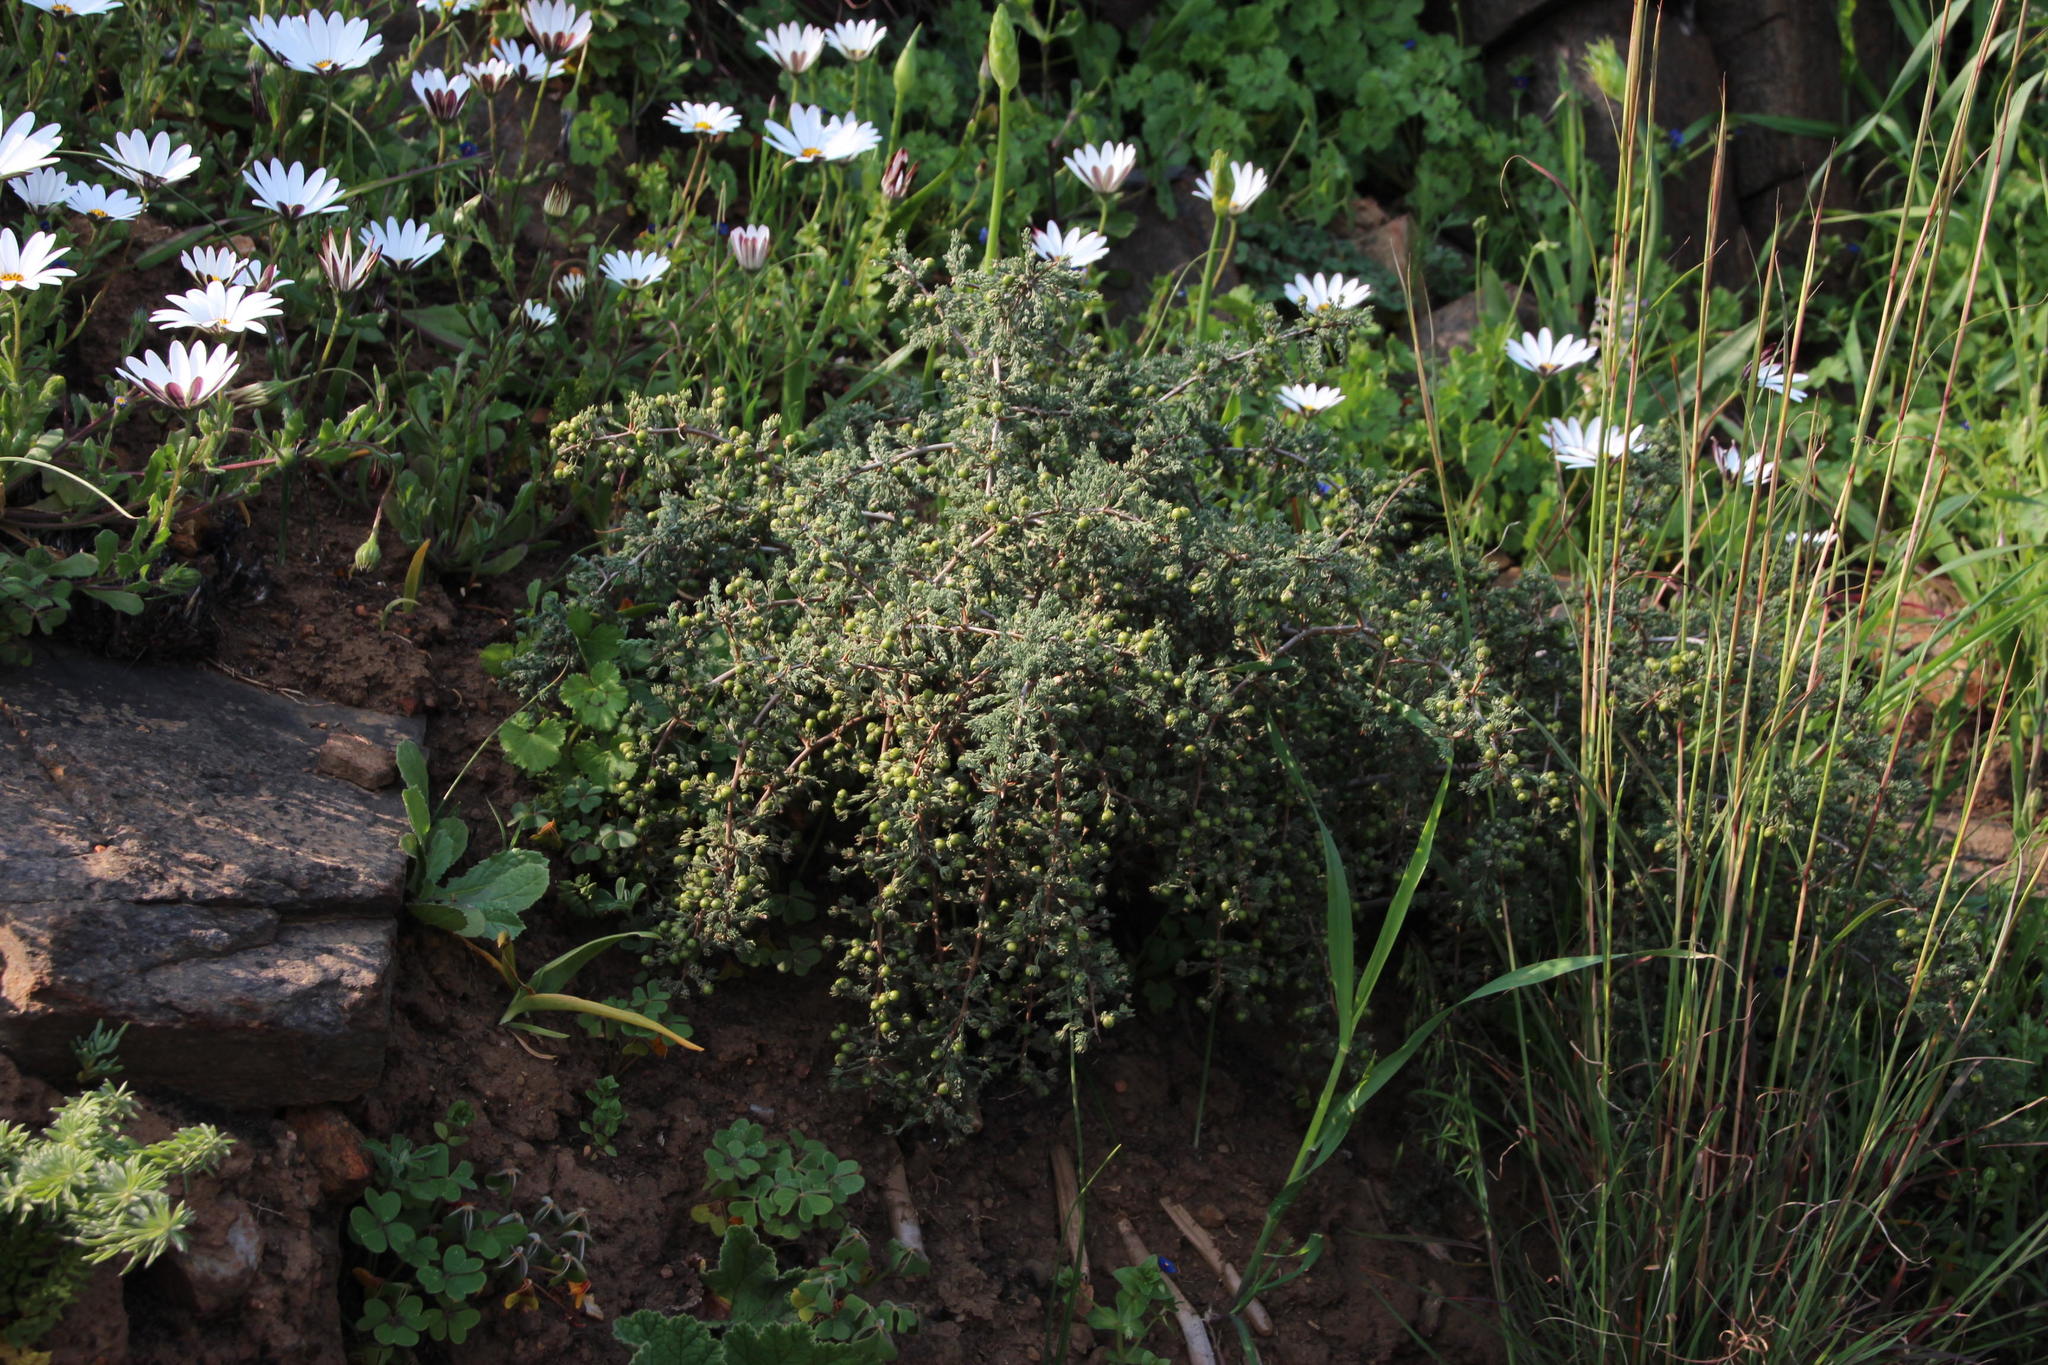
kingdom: Plantae
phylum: Tracheophyta
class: Liliopsida
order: Asparagales
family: Asparagaceae
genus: Asparagus
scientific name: Asparagus capensis
